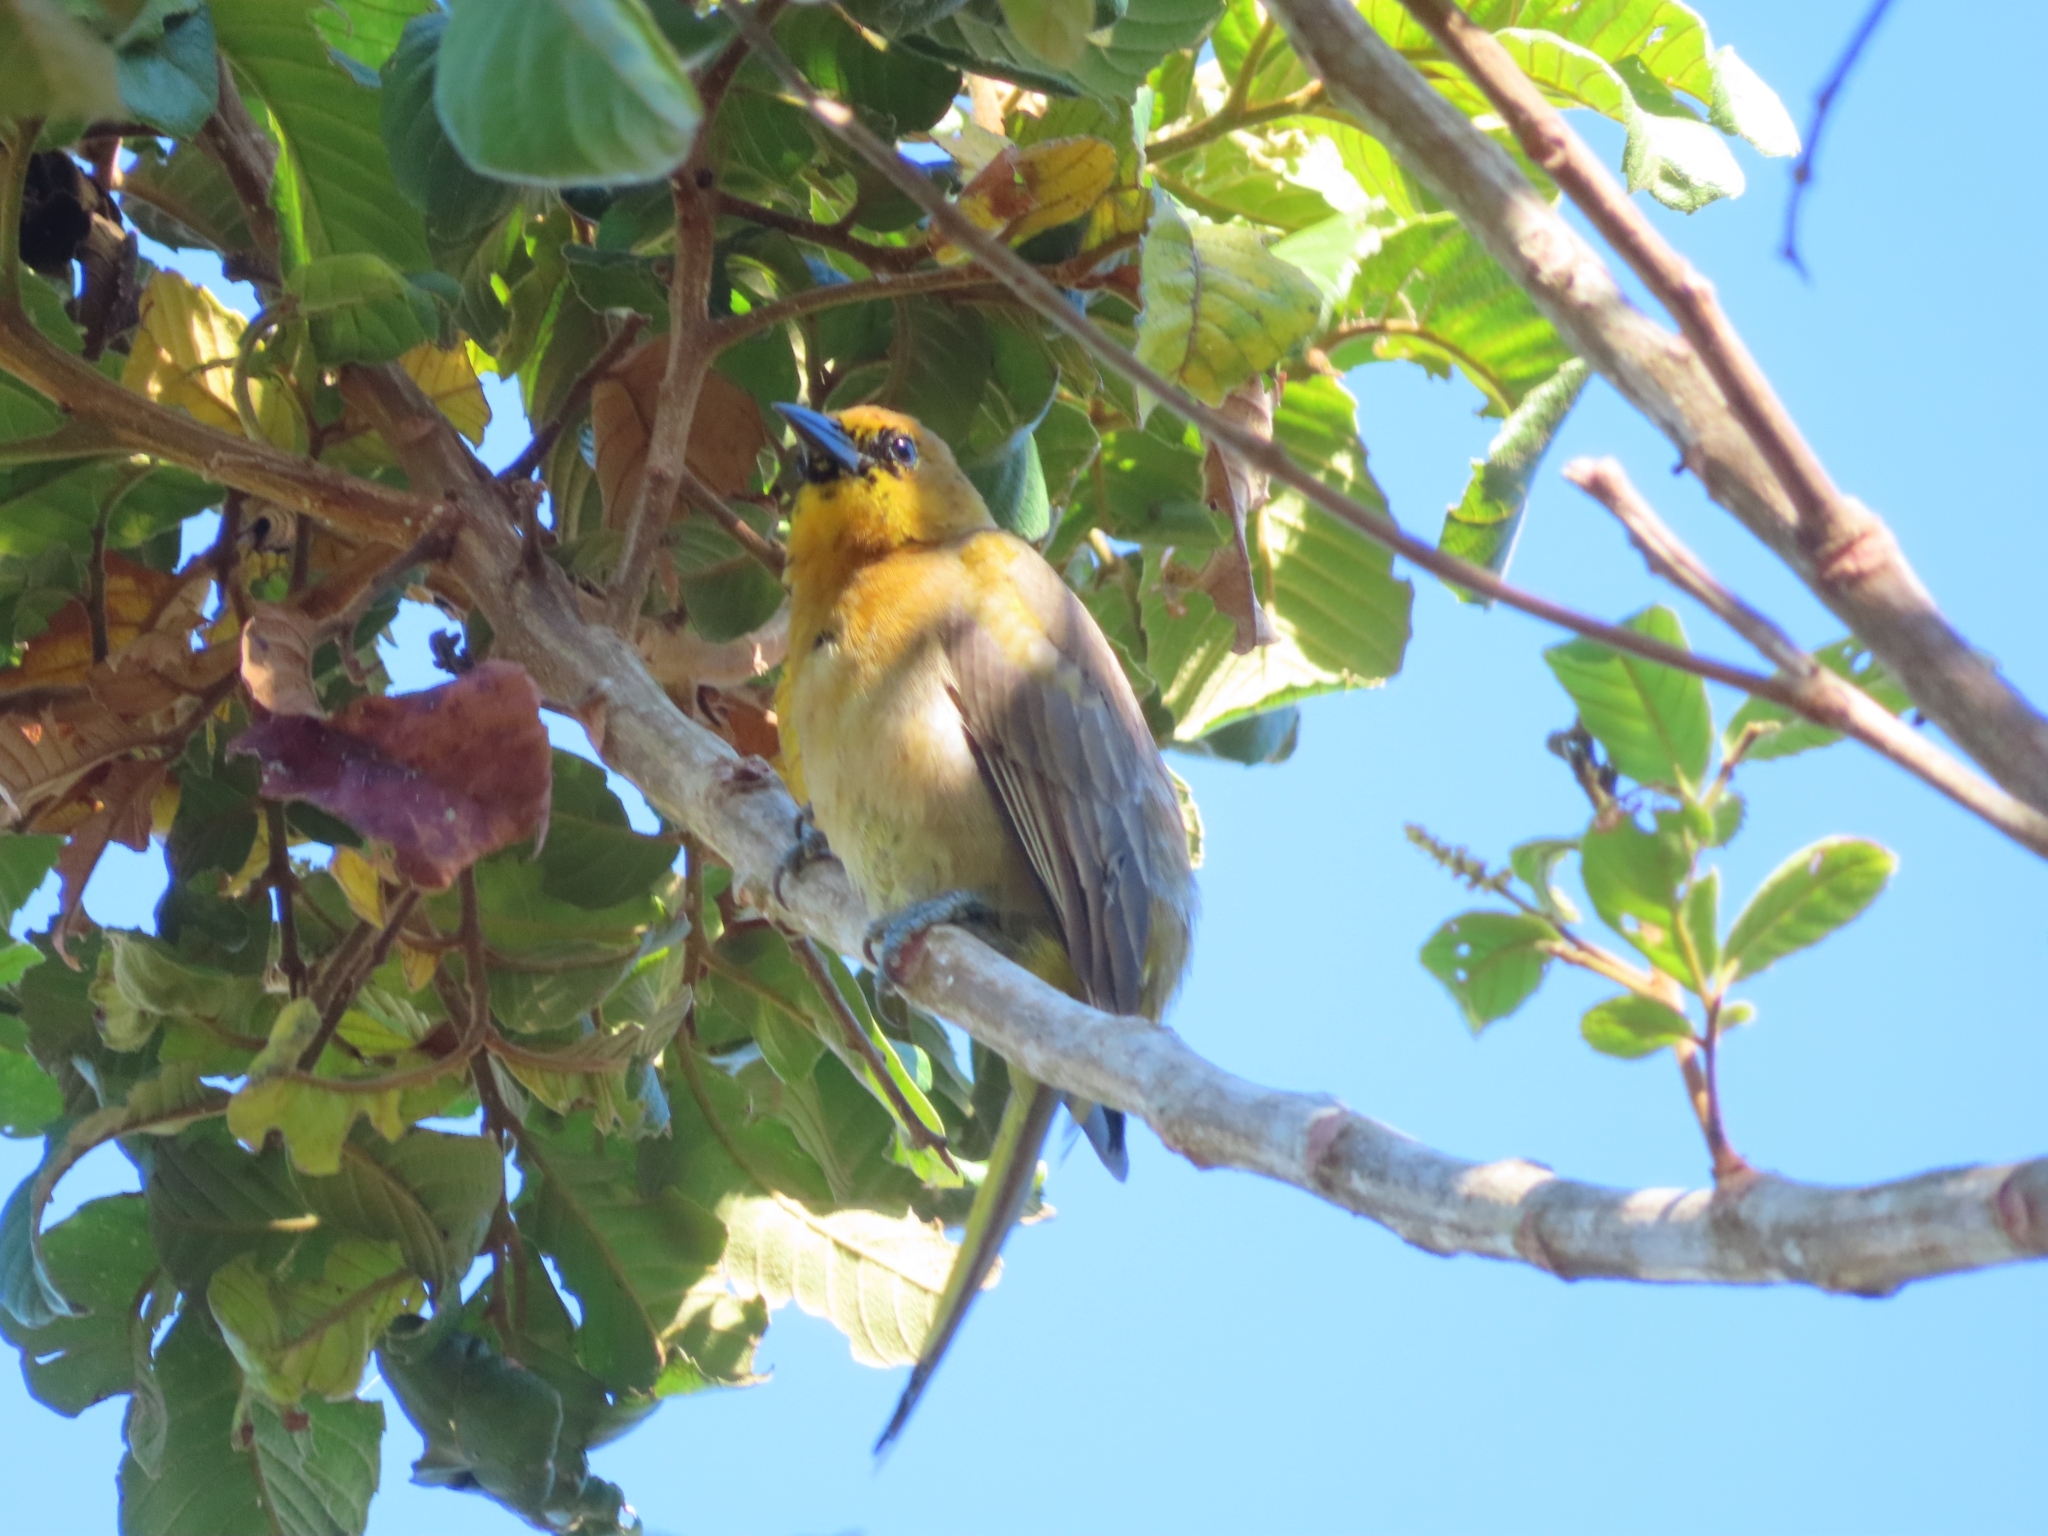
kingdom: Animalia
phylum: Chordata
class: Aves
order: Passeriformes
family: Icteridae
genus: Icterus
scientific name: Icterus portoricensis
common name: Puerto rican oriole
